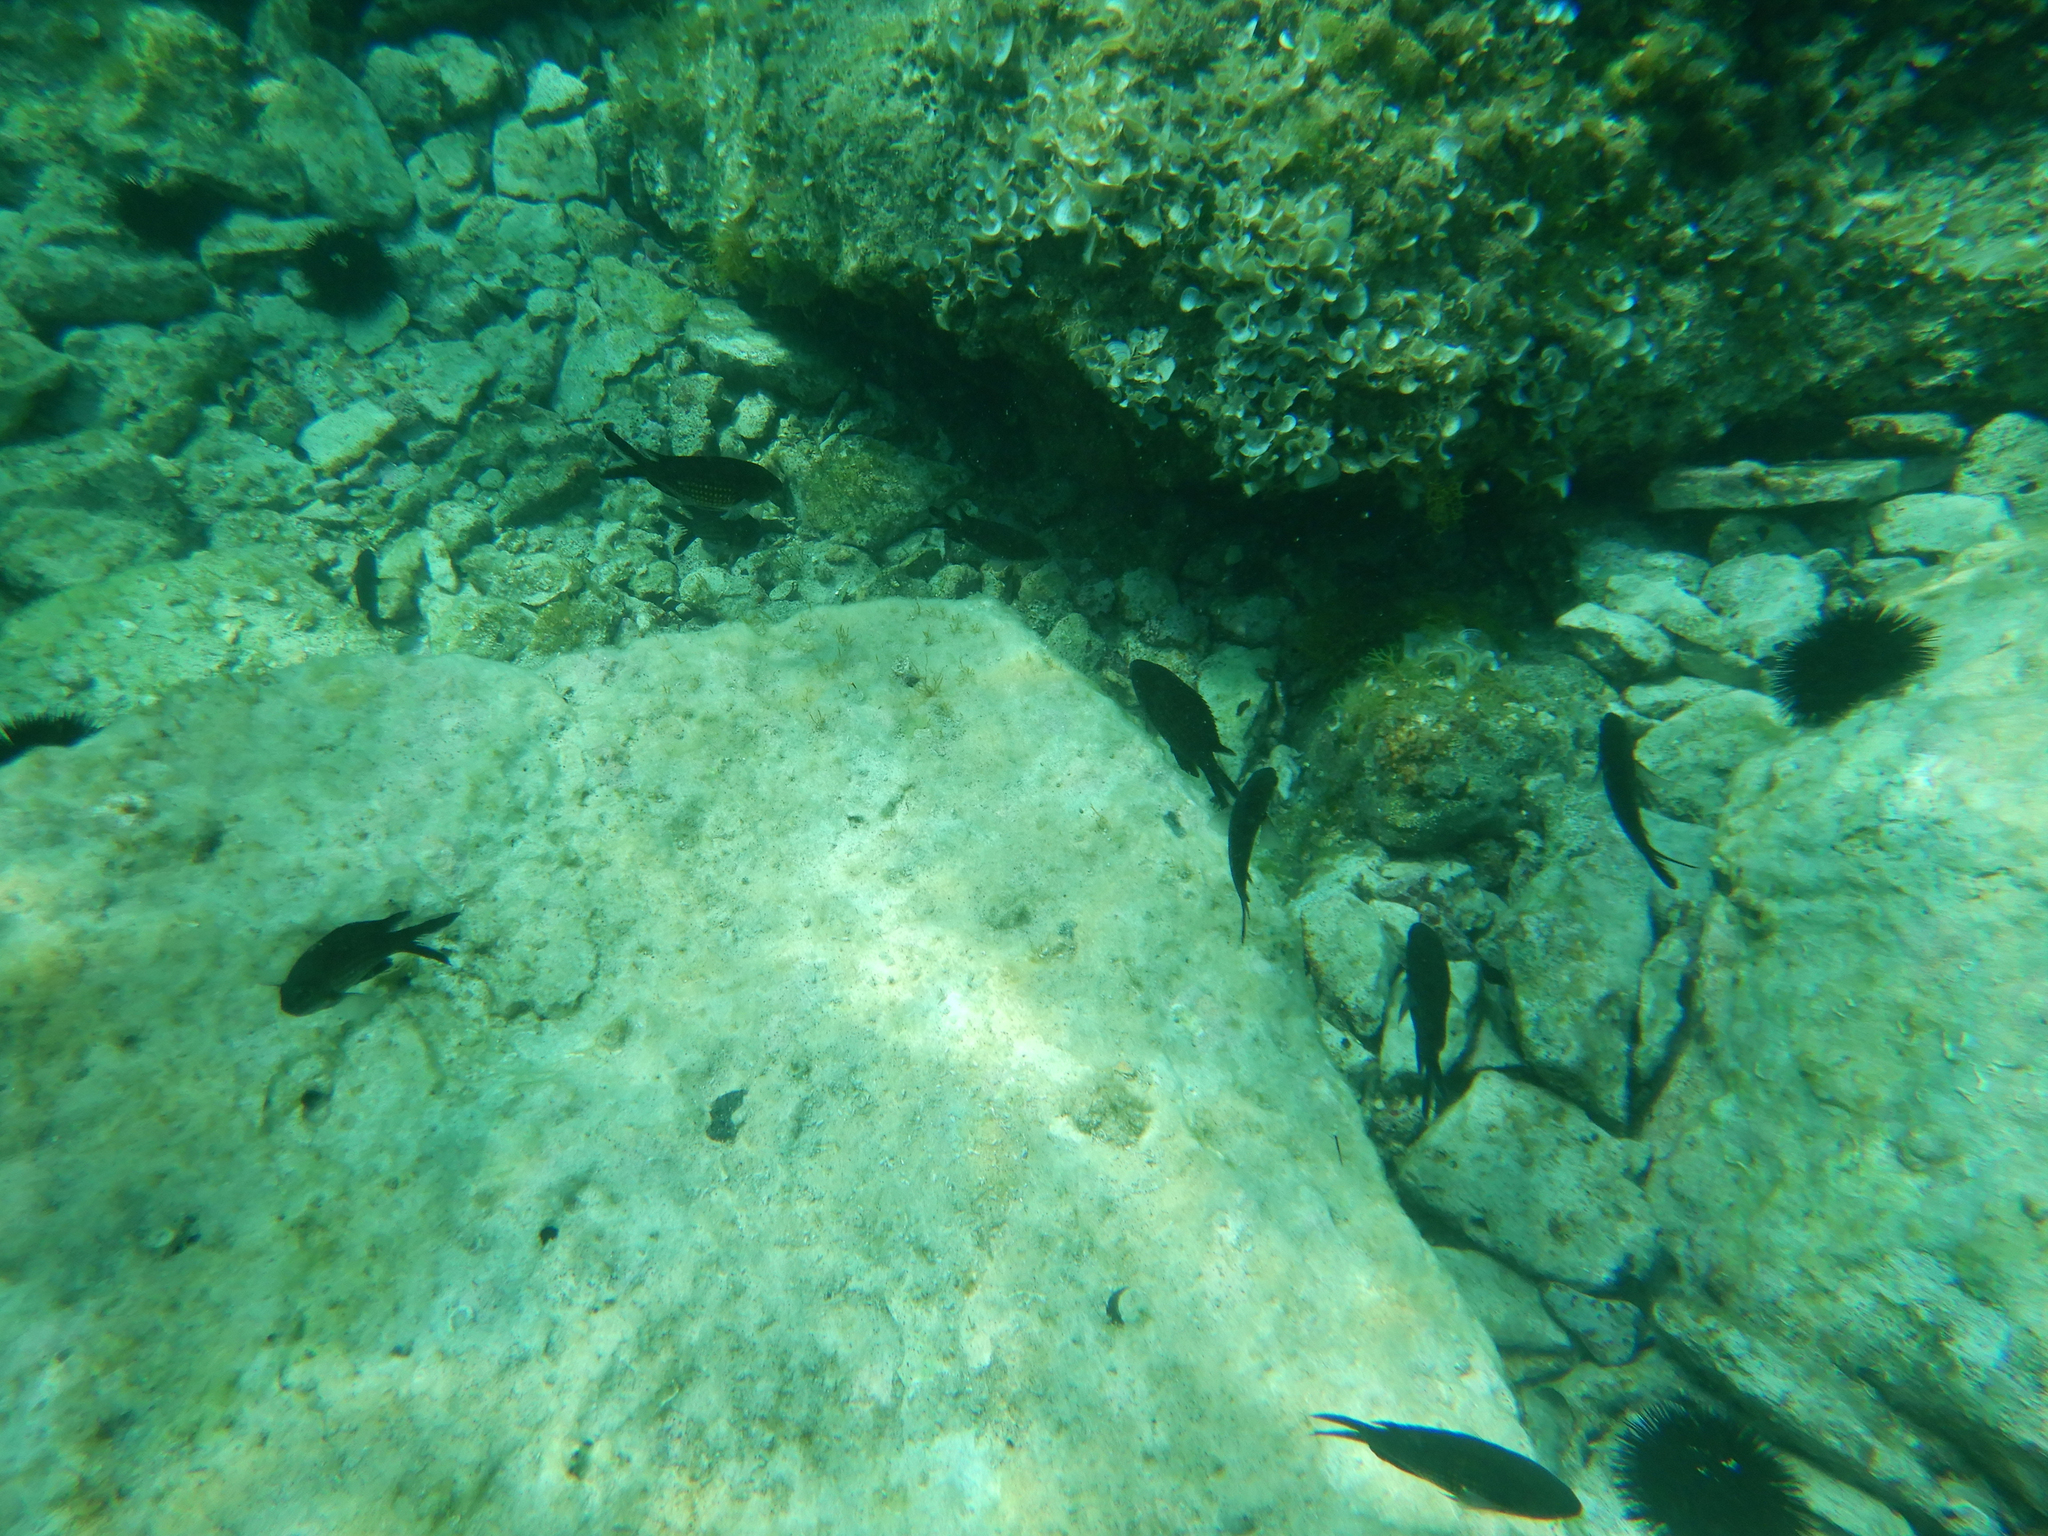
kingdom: Animalia
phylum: Chordata
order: Perciformes
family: Pomacentridae
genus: Chromis
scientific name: Chromis chromis
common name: Damselfish
